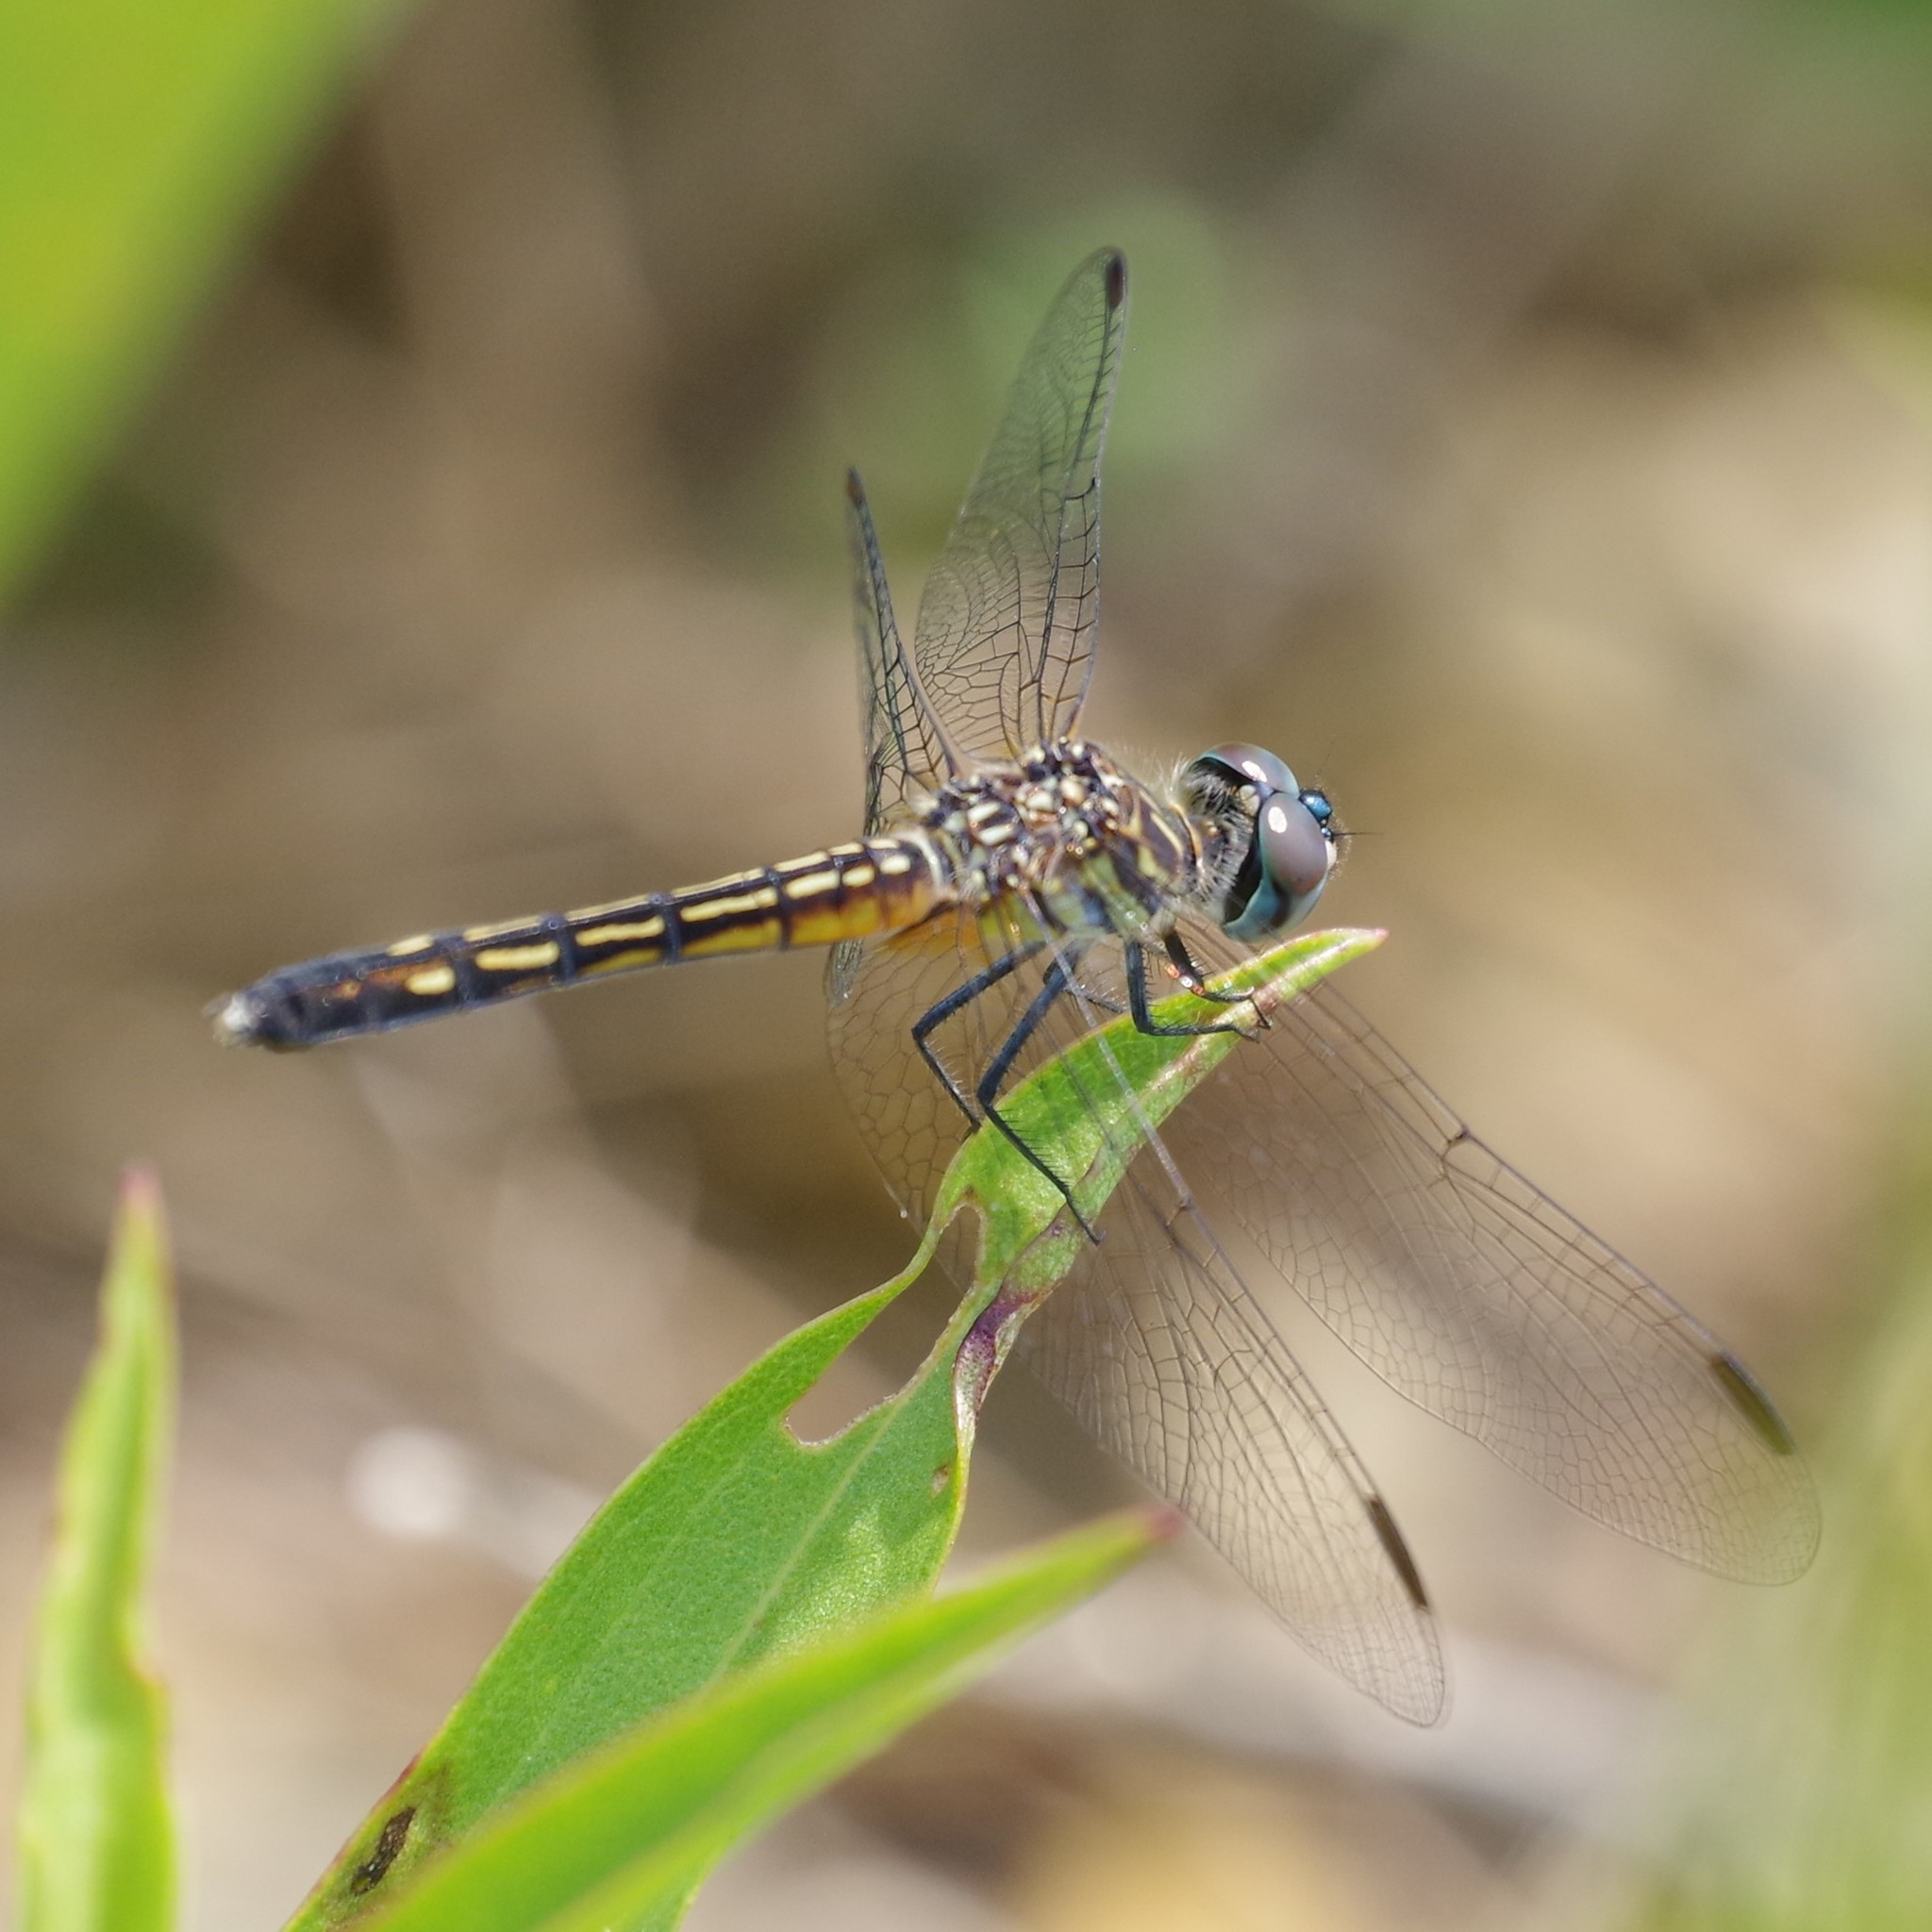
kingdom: Animalia
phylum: Arthropoda
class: Insecta
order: Odonata
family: Libellulidae
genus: Pachydiplax
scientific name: Pachydiplax longipennis
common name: Blue dasher
